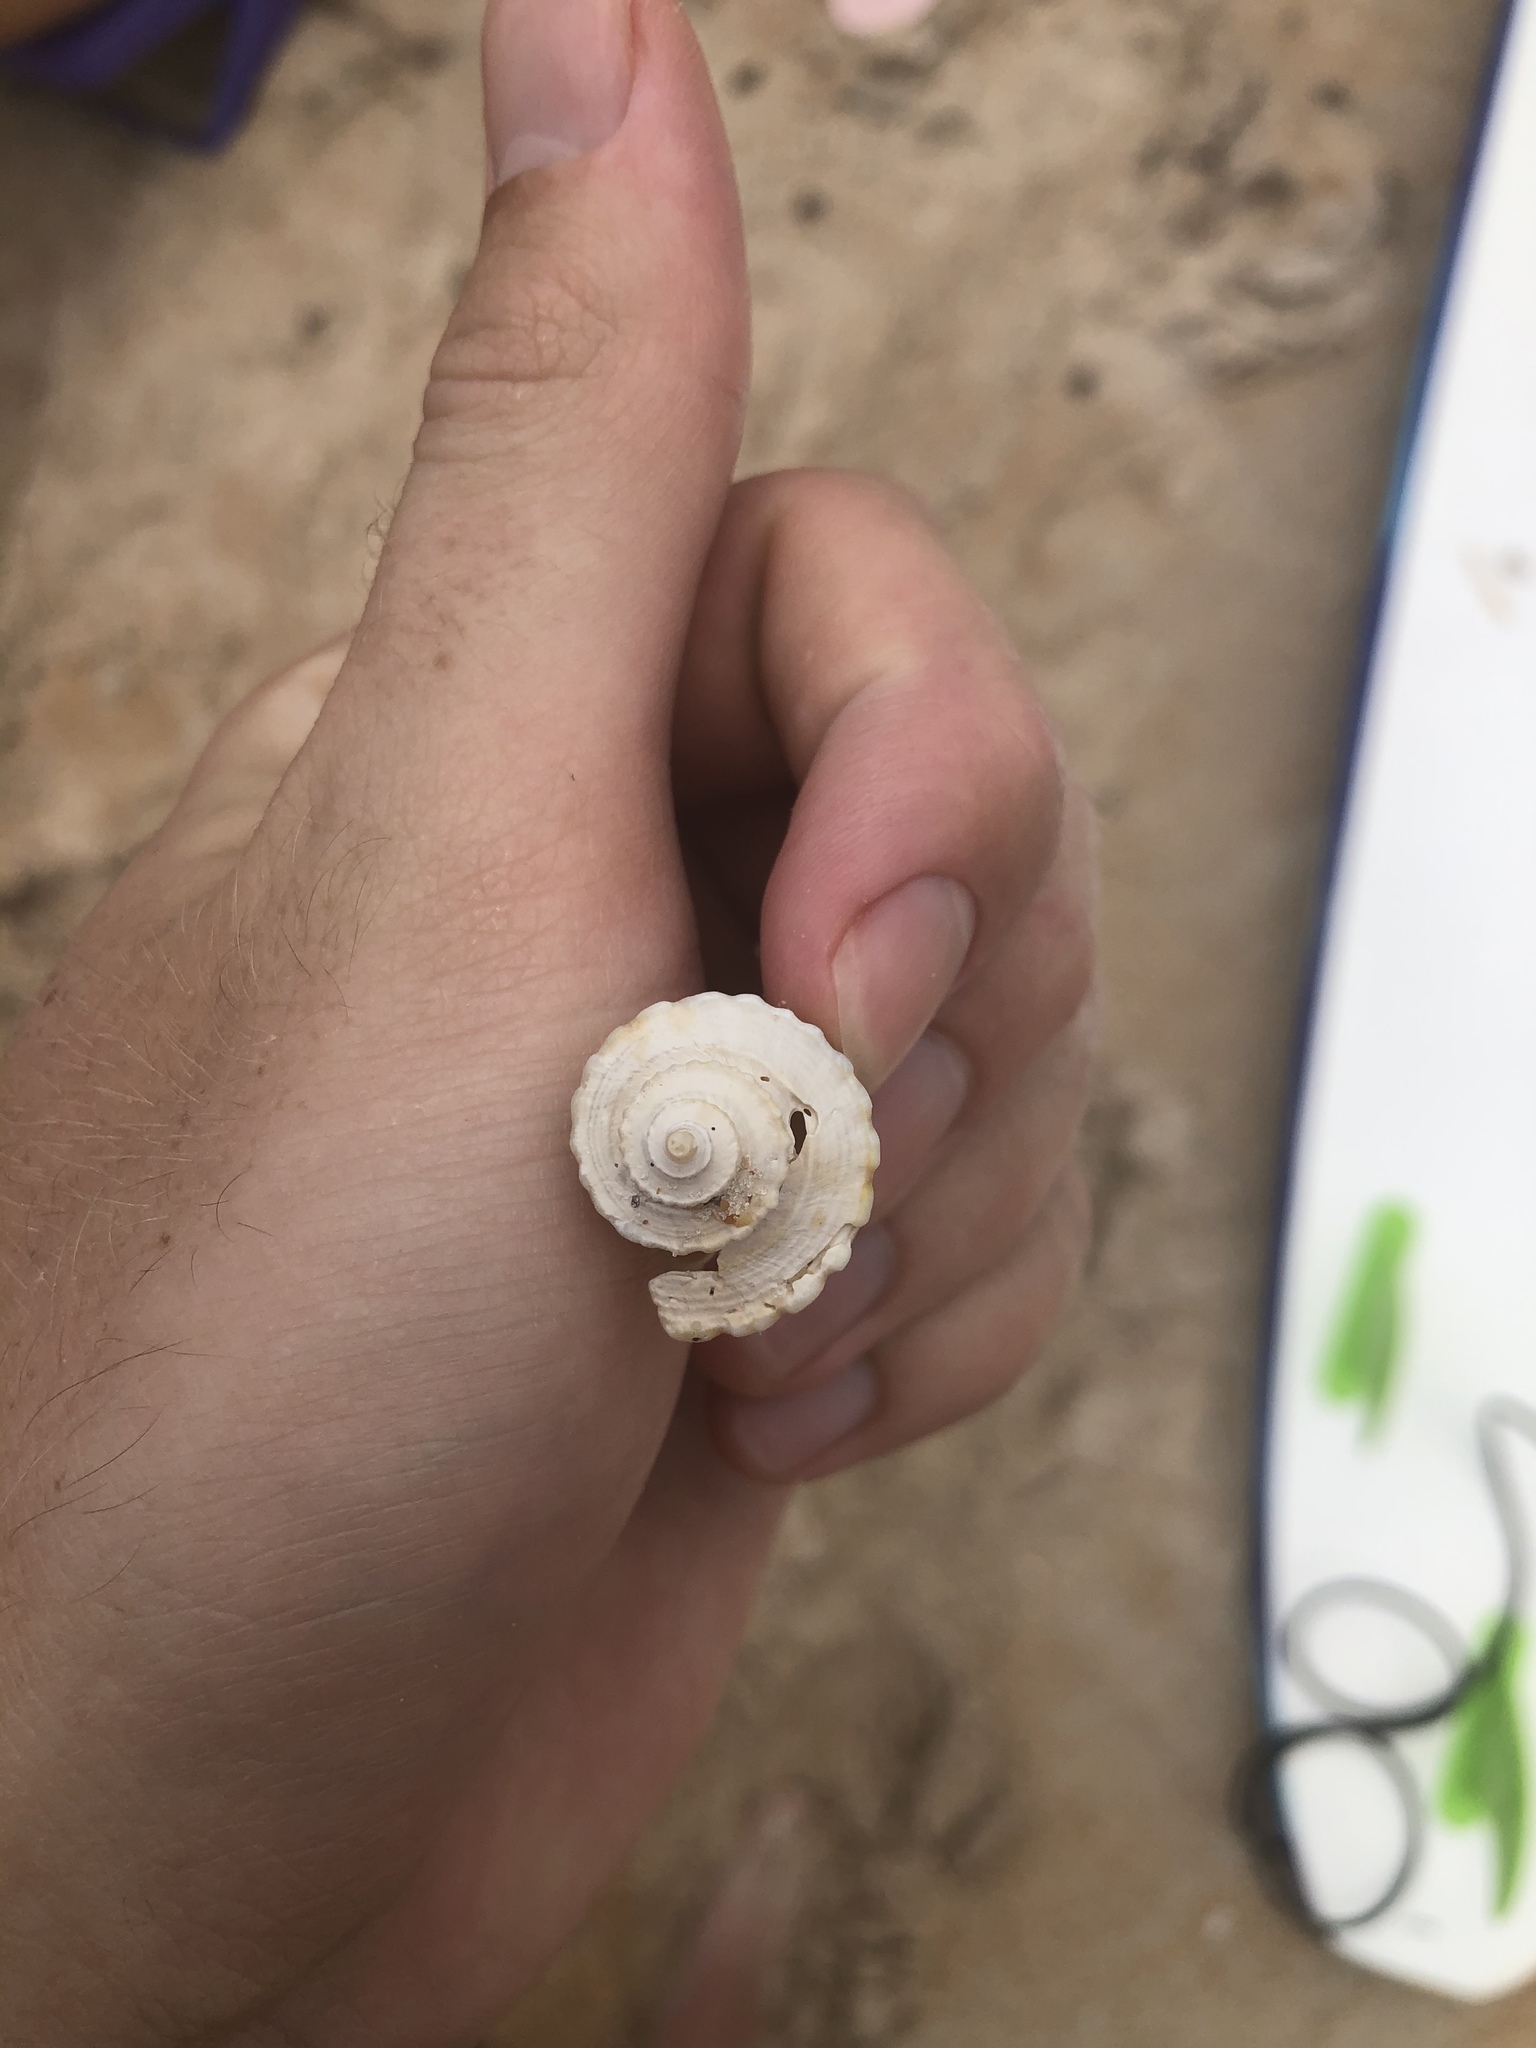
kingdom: Animalia
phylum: Mollusca
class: Gastropoda
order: Neogastropoda
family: Busyconidae
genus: Busycotypus
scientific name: Busycotypus canaliculatus
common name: Channeled whelk
